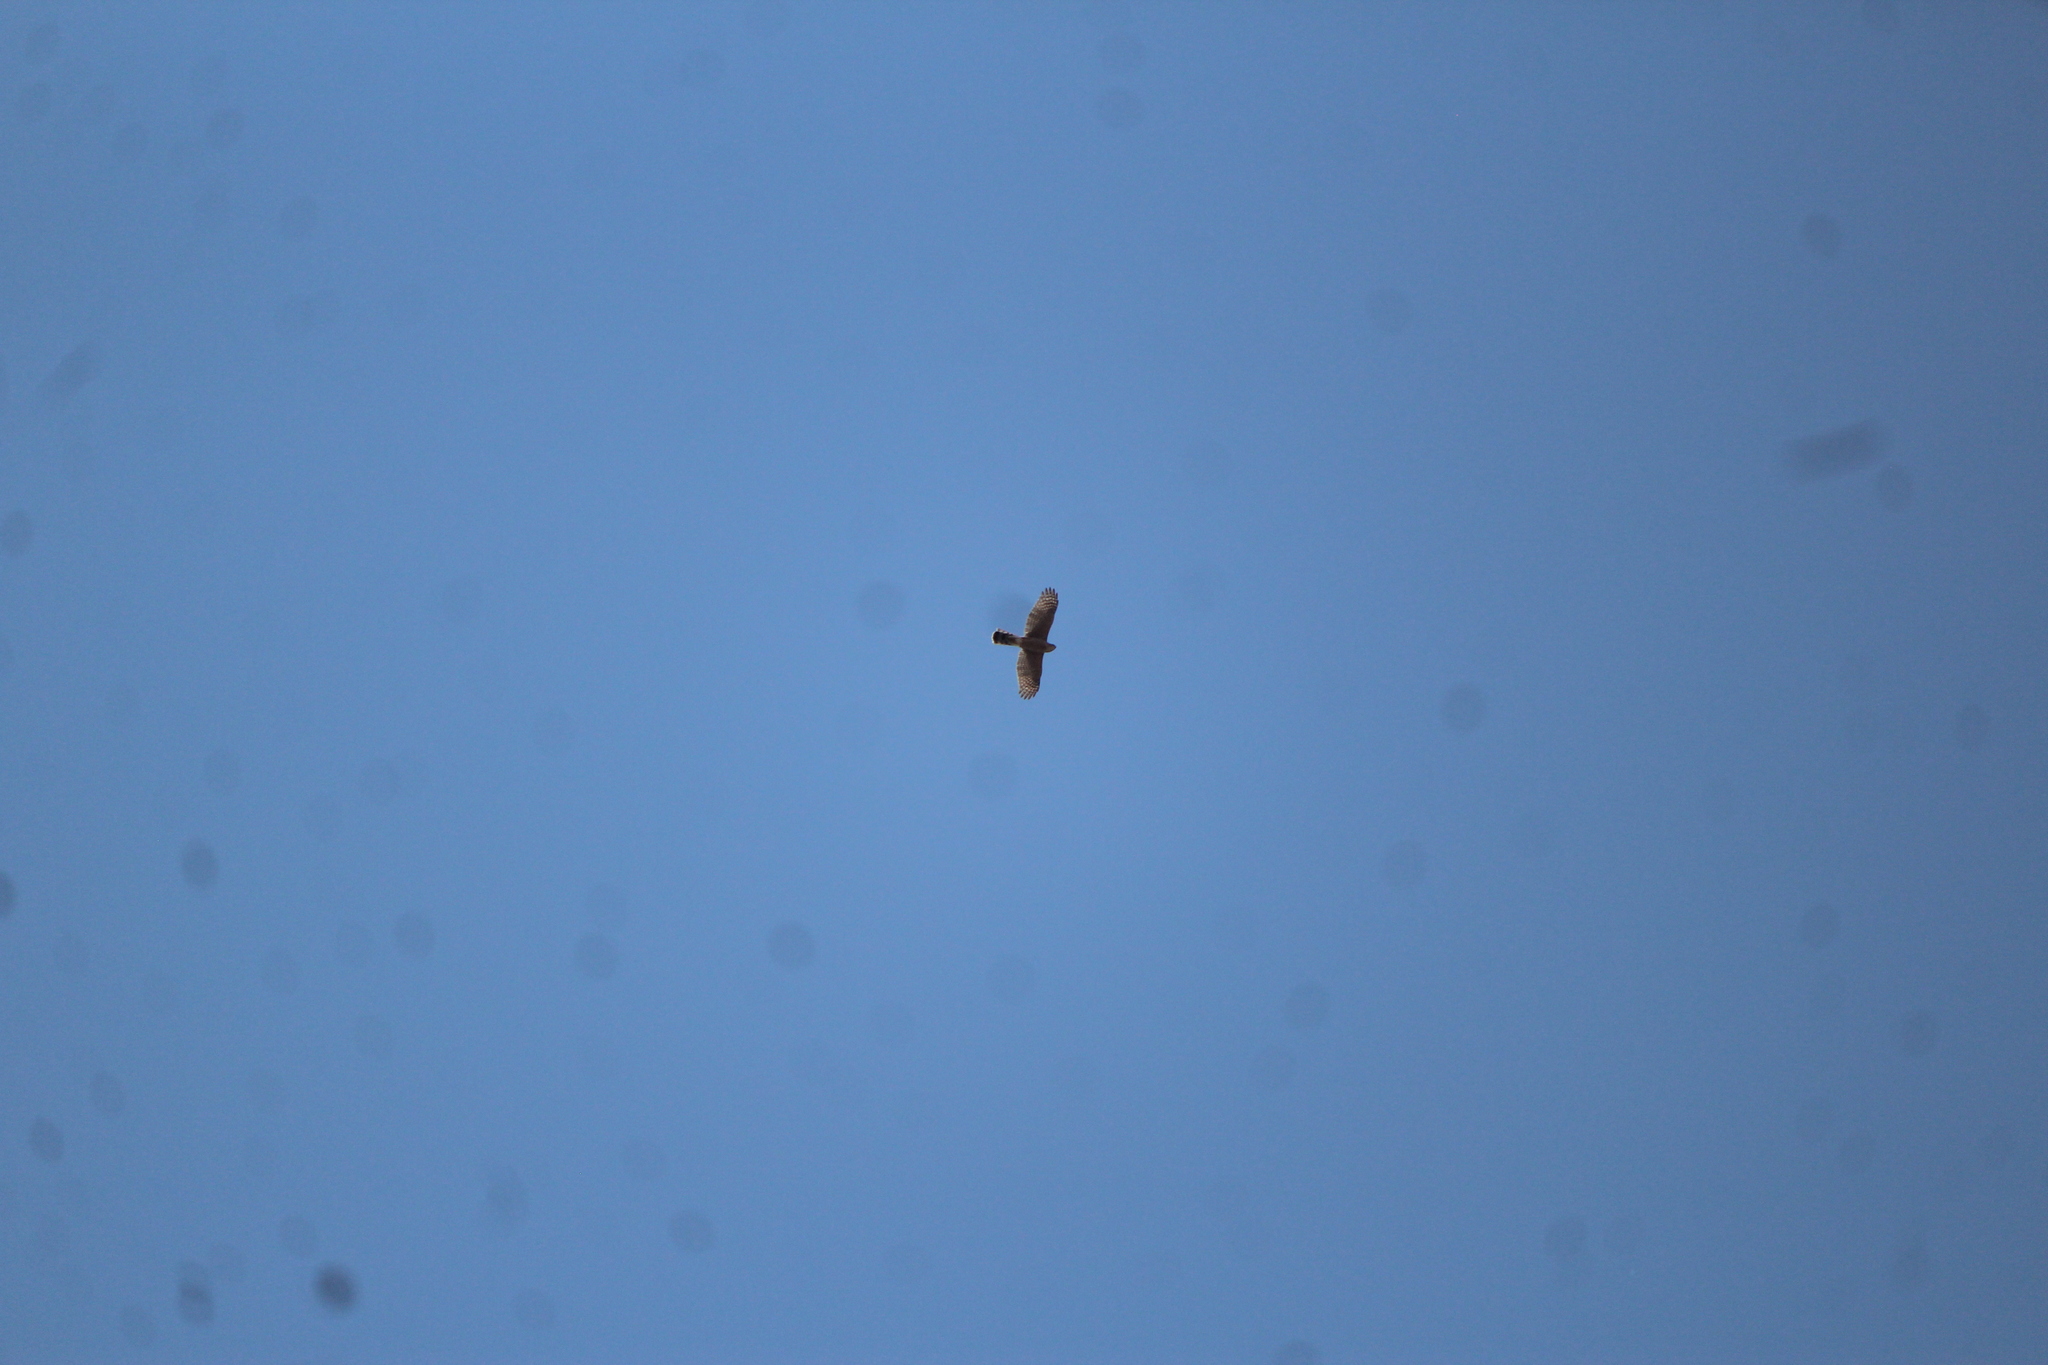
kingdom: Animalia
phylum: Chordata
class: Aves
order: Accipitriformes
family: Accipitridae
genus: Accipiter
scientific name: Accipiter cooperii
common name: Cooper's hawk
